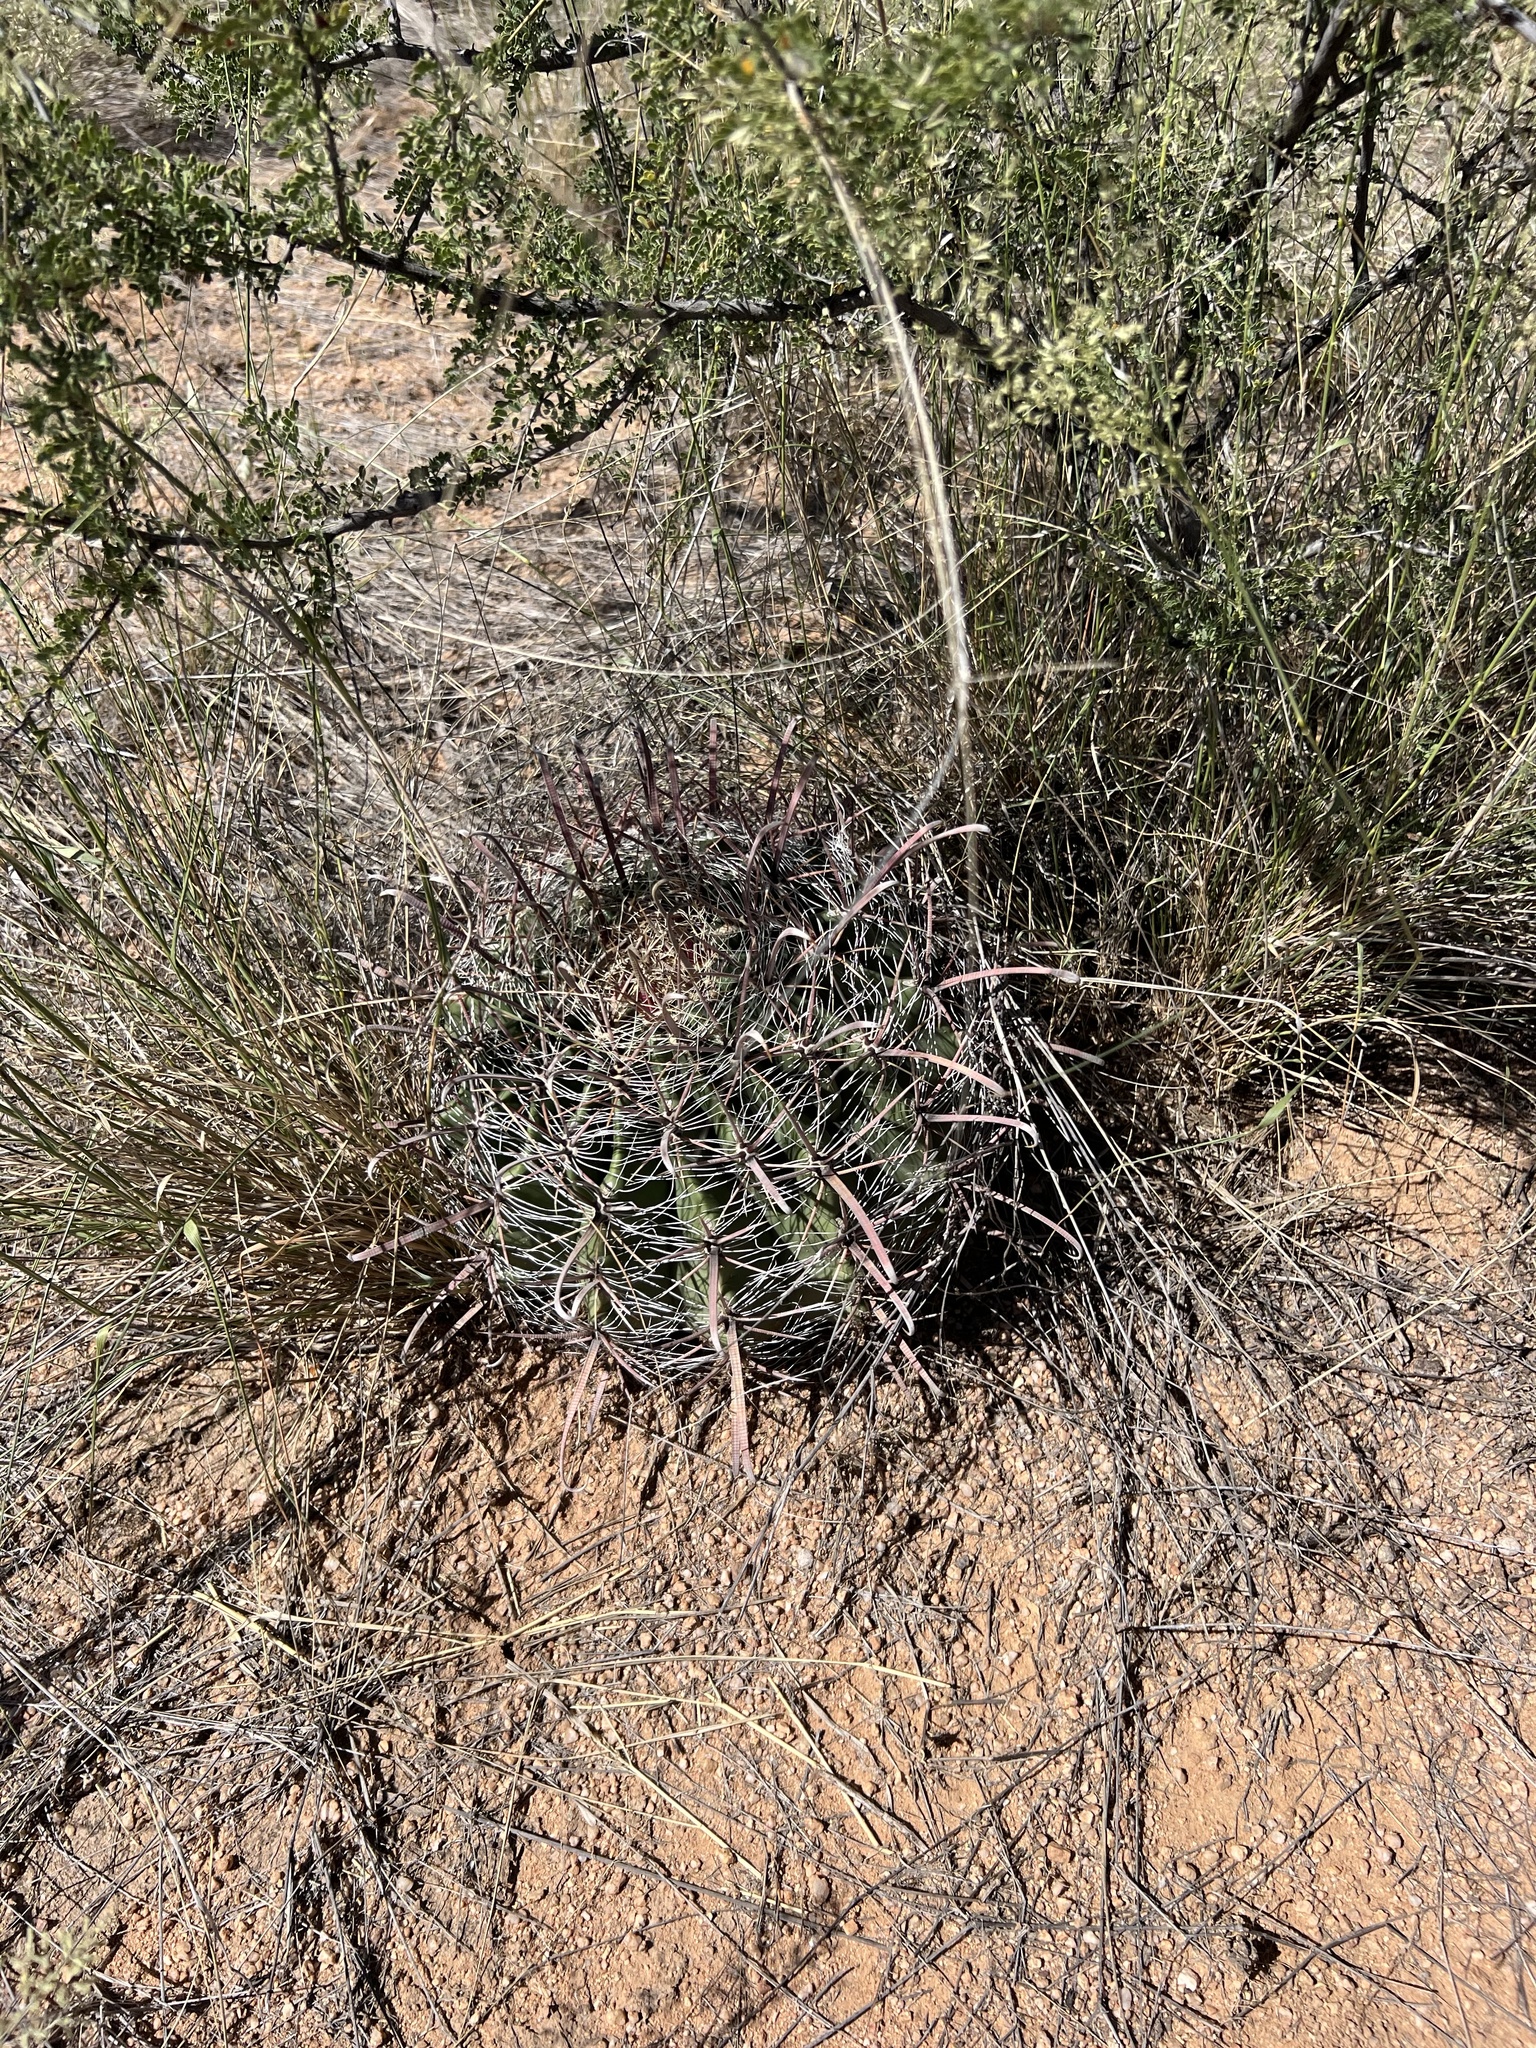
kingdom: Plantae
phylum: Tracheophyta
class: Magnoliopsida
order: Caryophyllales
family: Cactaceae
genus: Ferocactus
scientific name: Ferocactus wislizeni
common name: Candy barrel cactus
